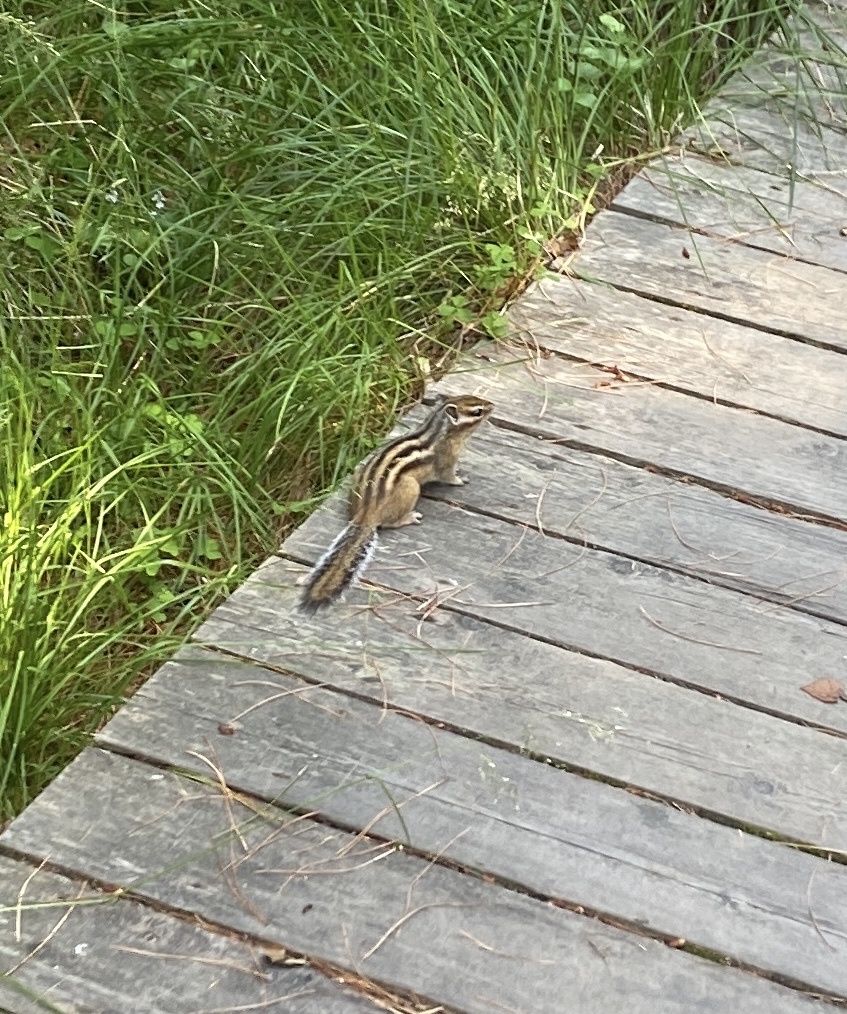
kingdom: Animalia
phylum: Chordata
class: Mammalia
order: Rodentia
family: Sciuridae
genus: Tamias
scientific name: Tamias sibiricus
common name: Siberian chipmunk
